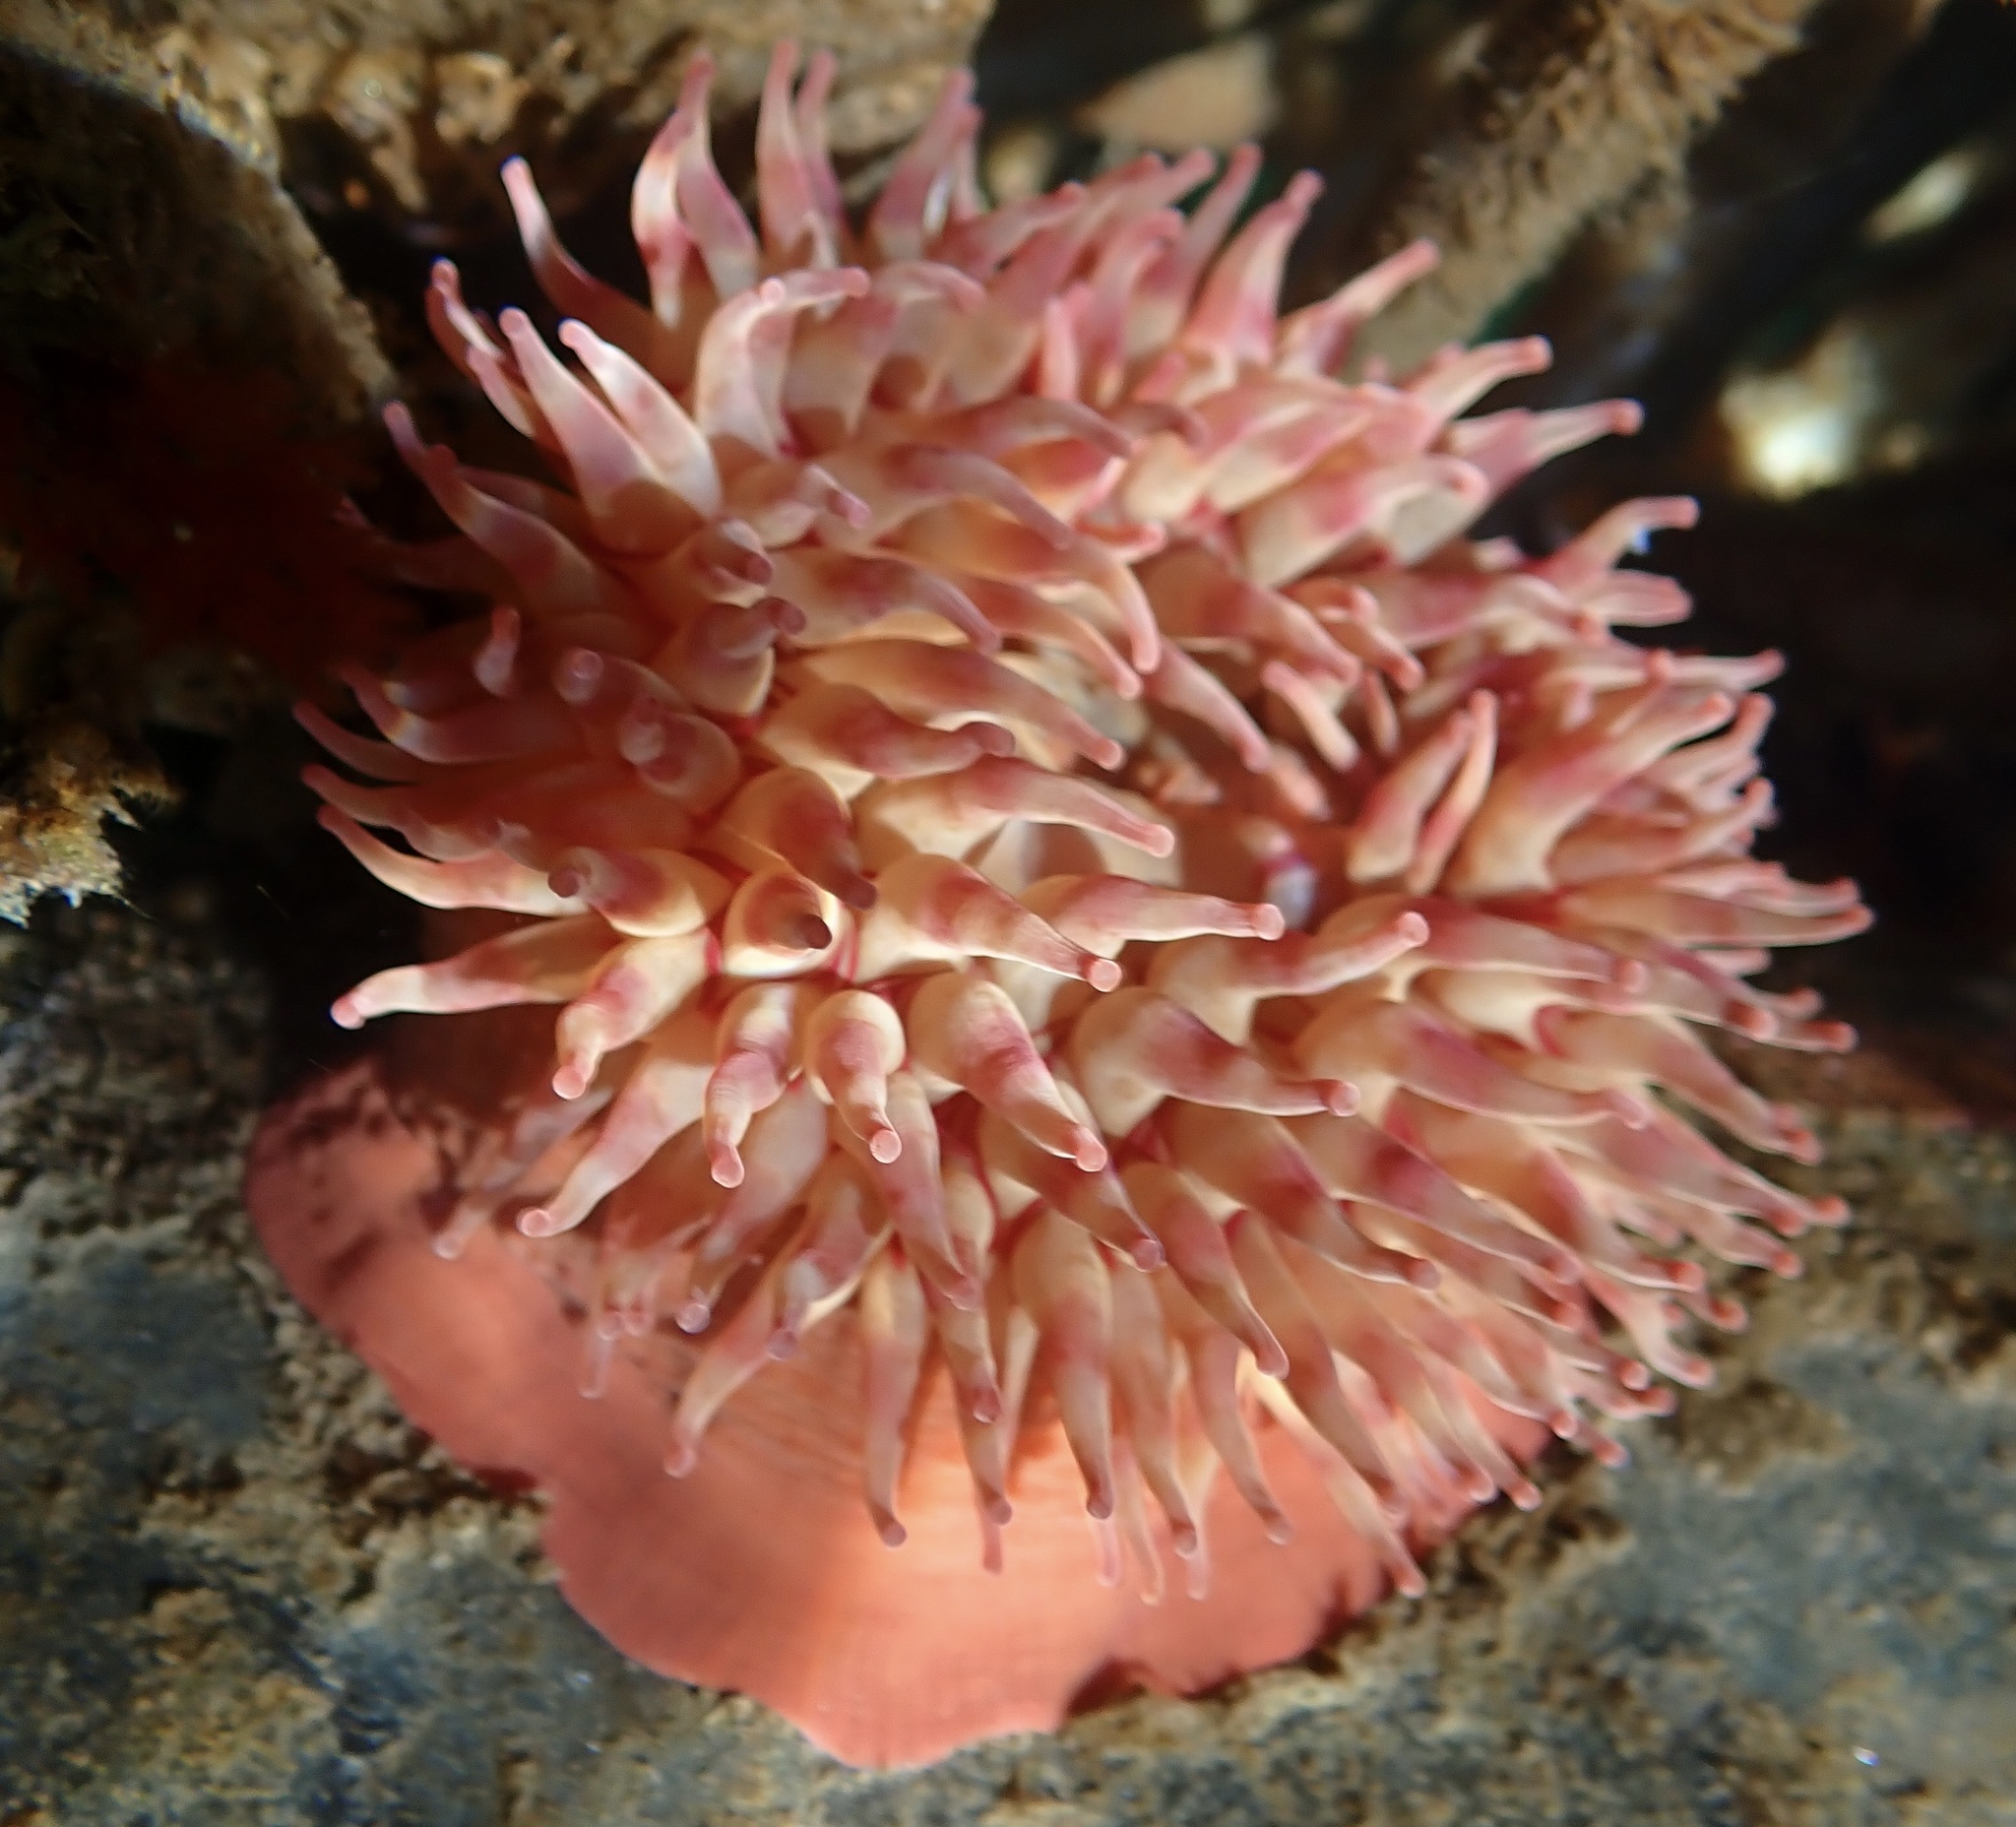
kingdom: Animalia
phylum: Cnidaria
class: Anthozoa
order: Actiniaria
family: Actiniidae
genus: Urticina
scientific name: Urticina grebelnyi
